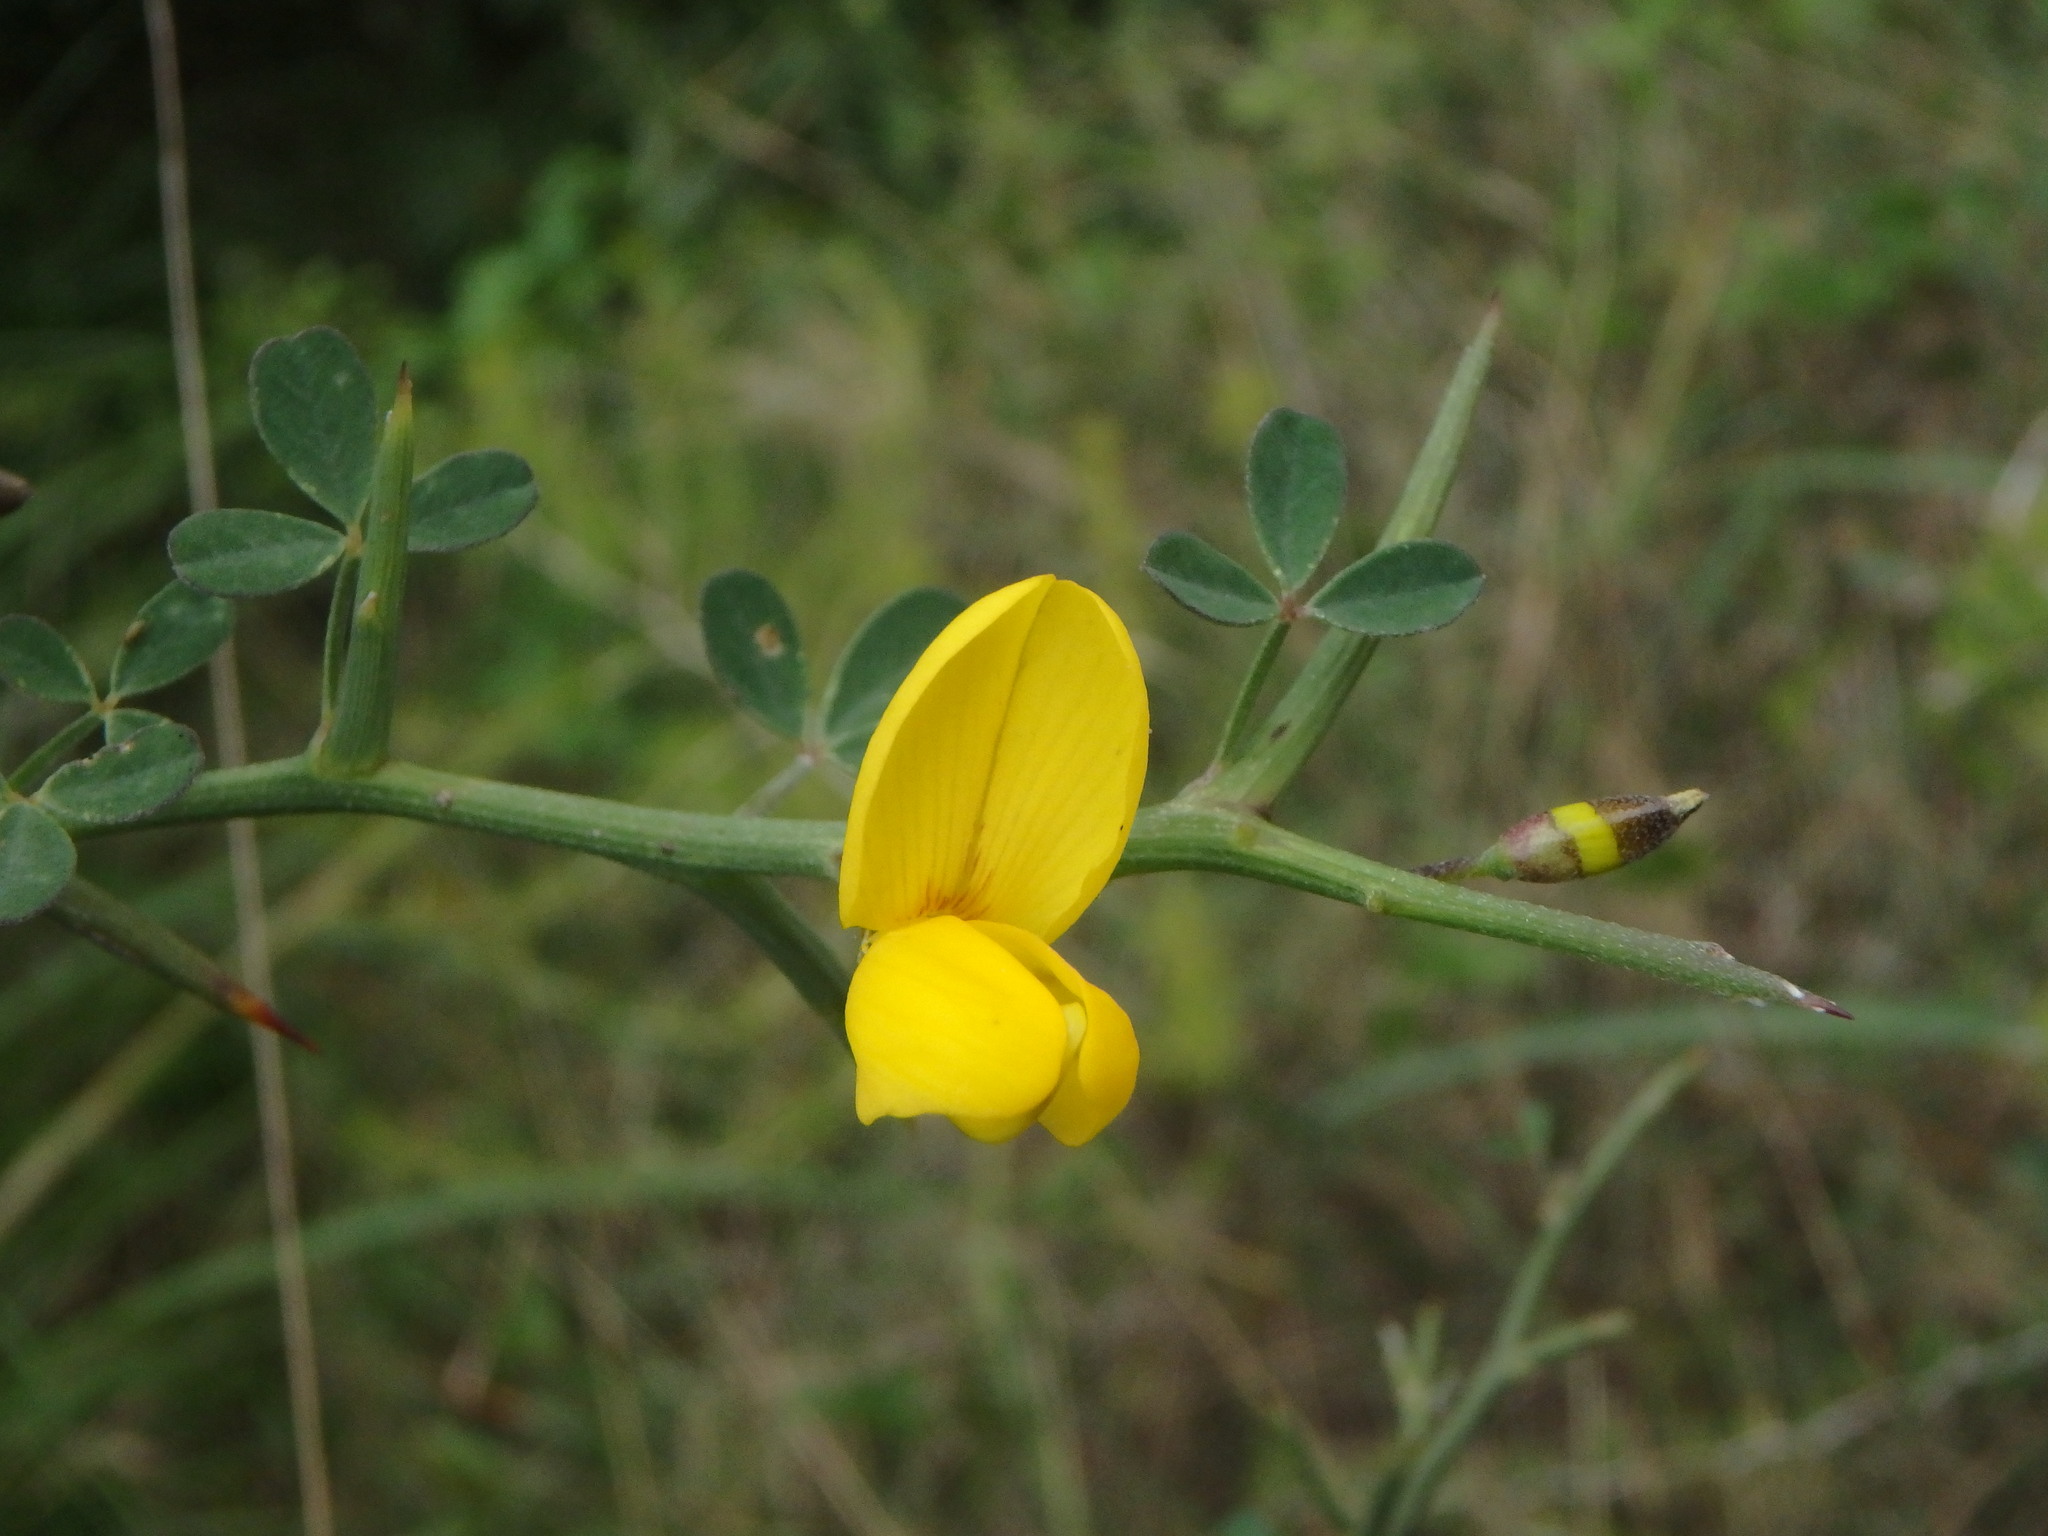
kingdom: Plantae
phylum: Tracheophyta
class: Magnoliopsida
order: Fabales
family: Fabaceae
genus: Calicotome
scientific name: Calicotome spinosa
